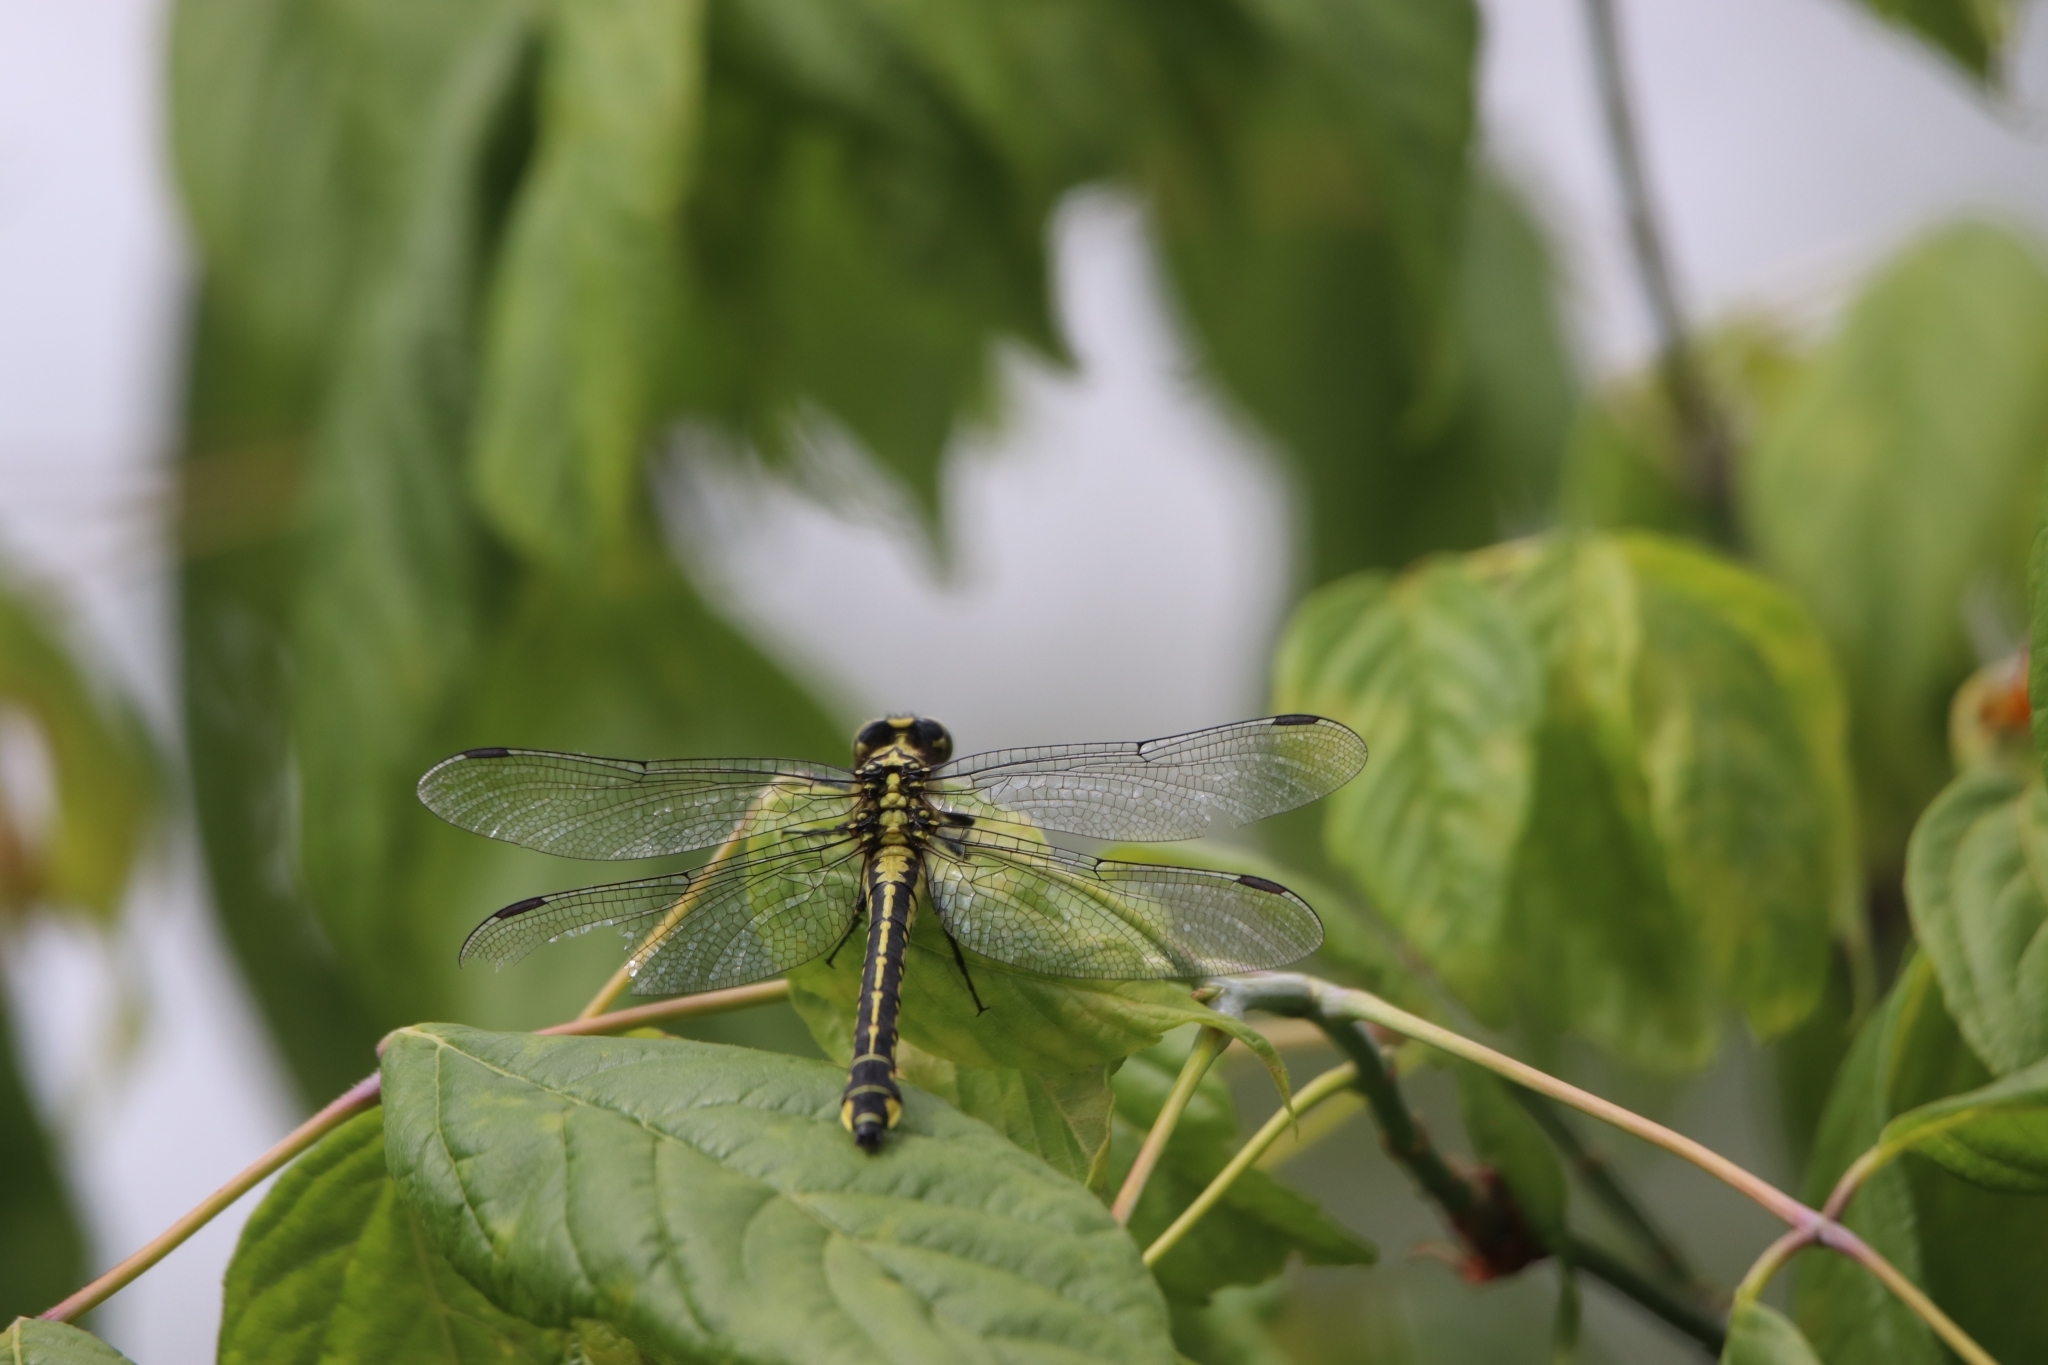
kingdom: Animalia
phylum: Arthropoda
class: Insecta
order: Odonata
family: Gomphidae
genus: Gomphus
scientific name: Gomphus vulgatissimus
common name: Club-tailed dragonfly
